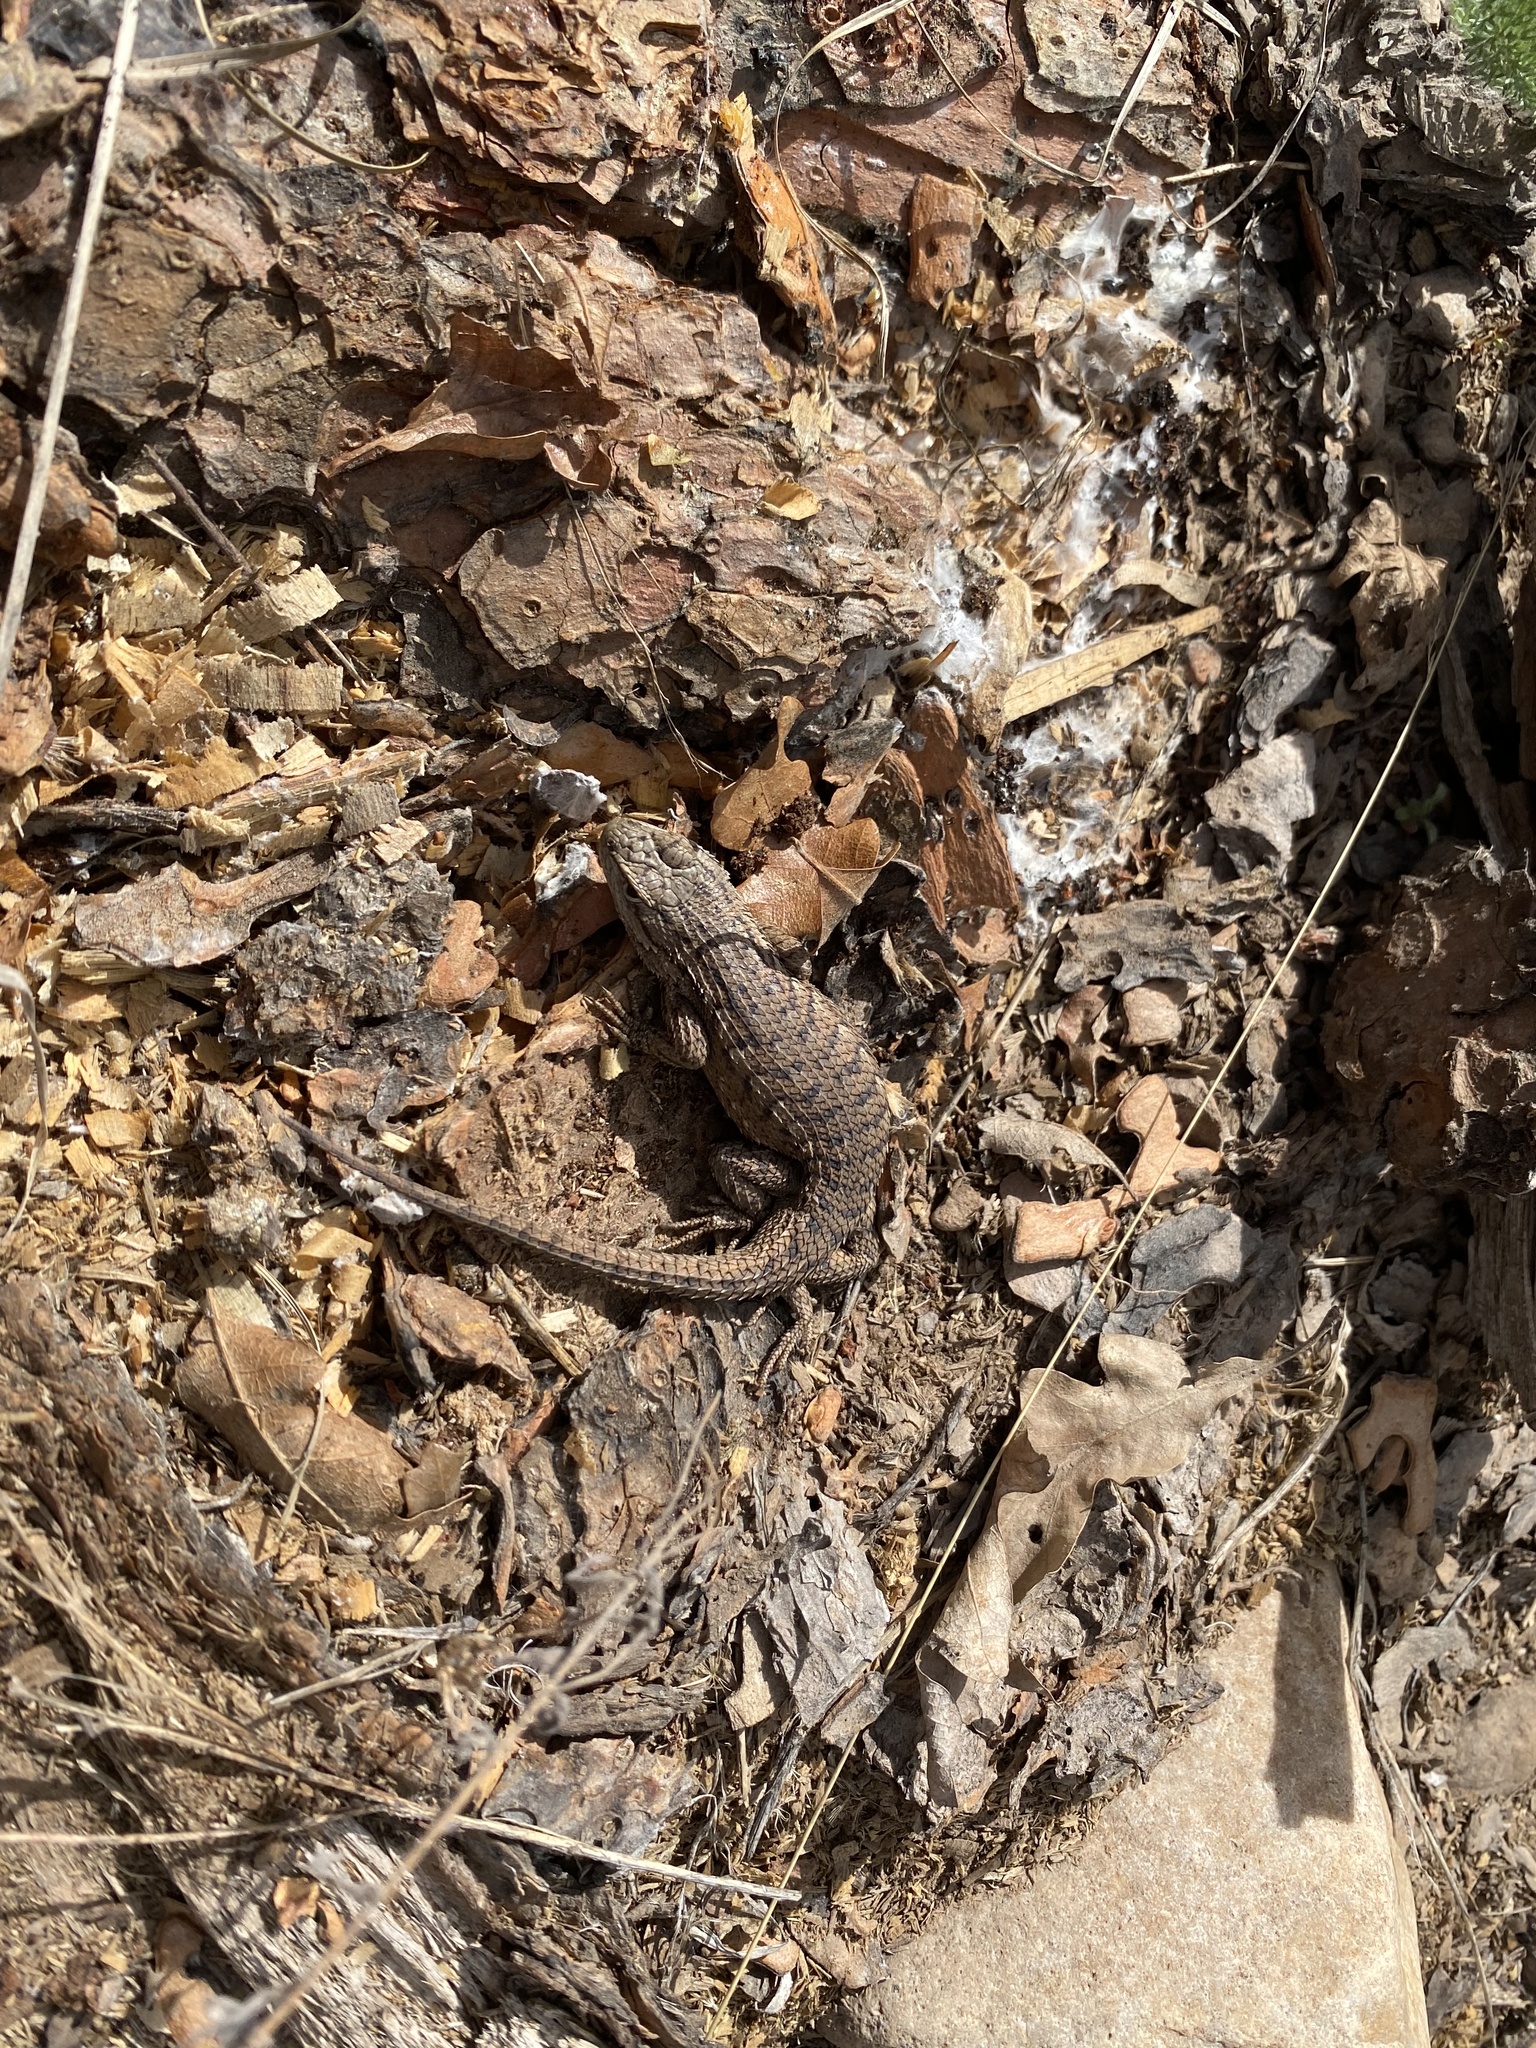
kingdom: Animalia
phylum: Chordata
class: Squamata
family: Phrynosomatidae
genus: Sceloporus
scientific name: Sceloporus tristichus
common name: Plateau fence lizard
